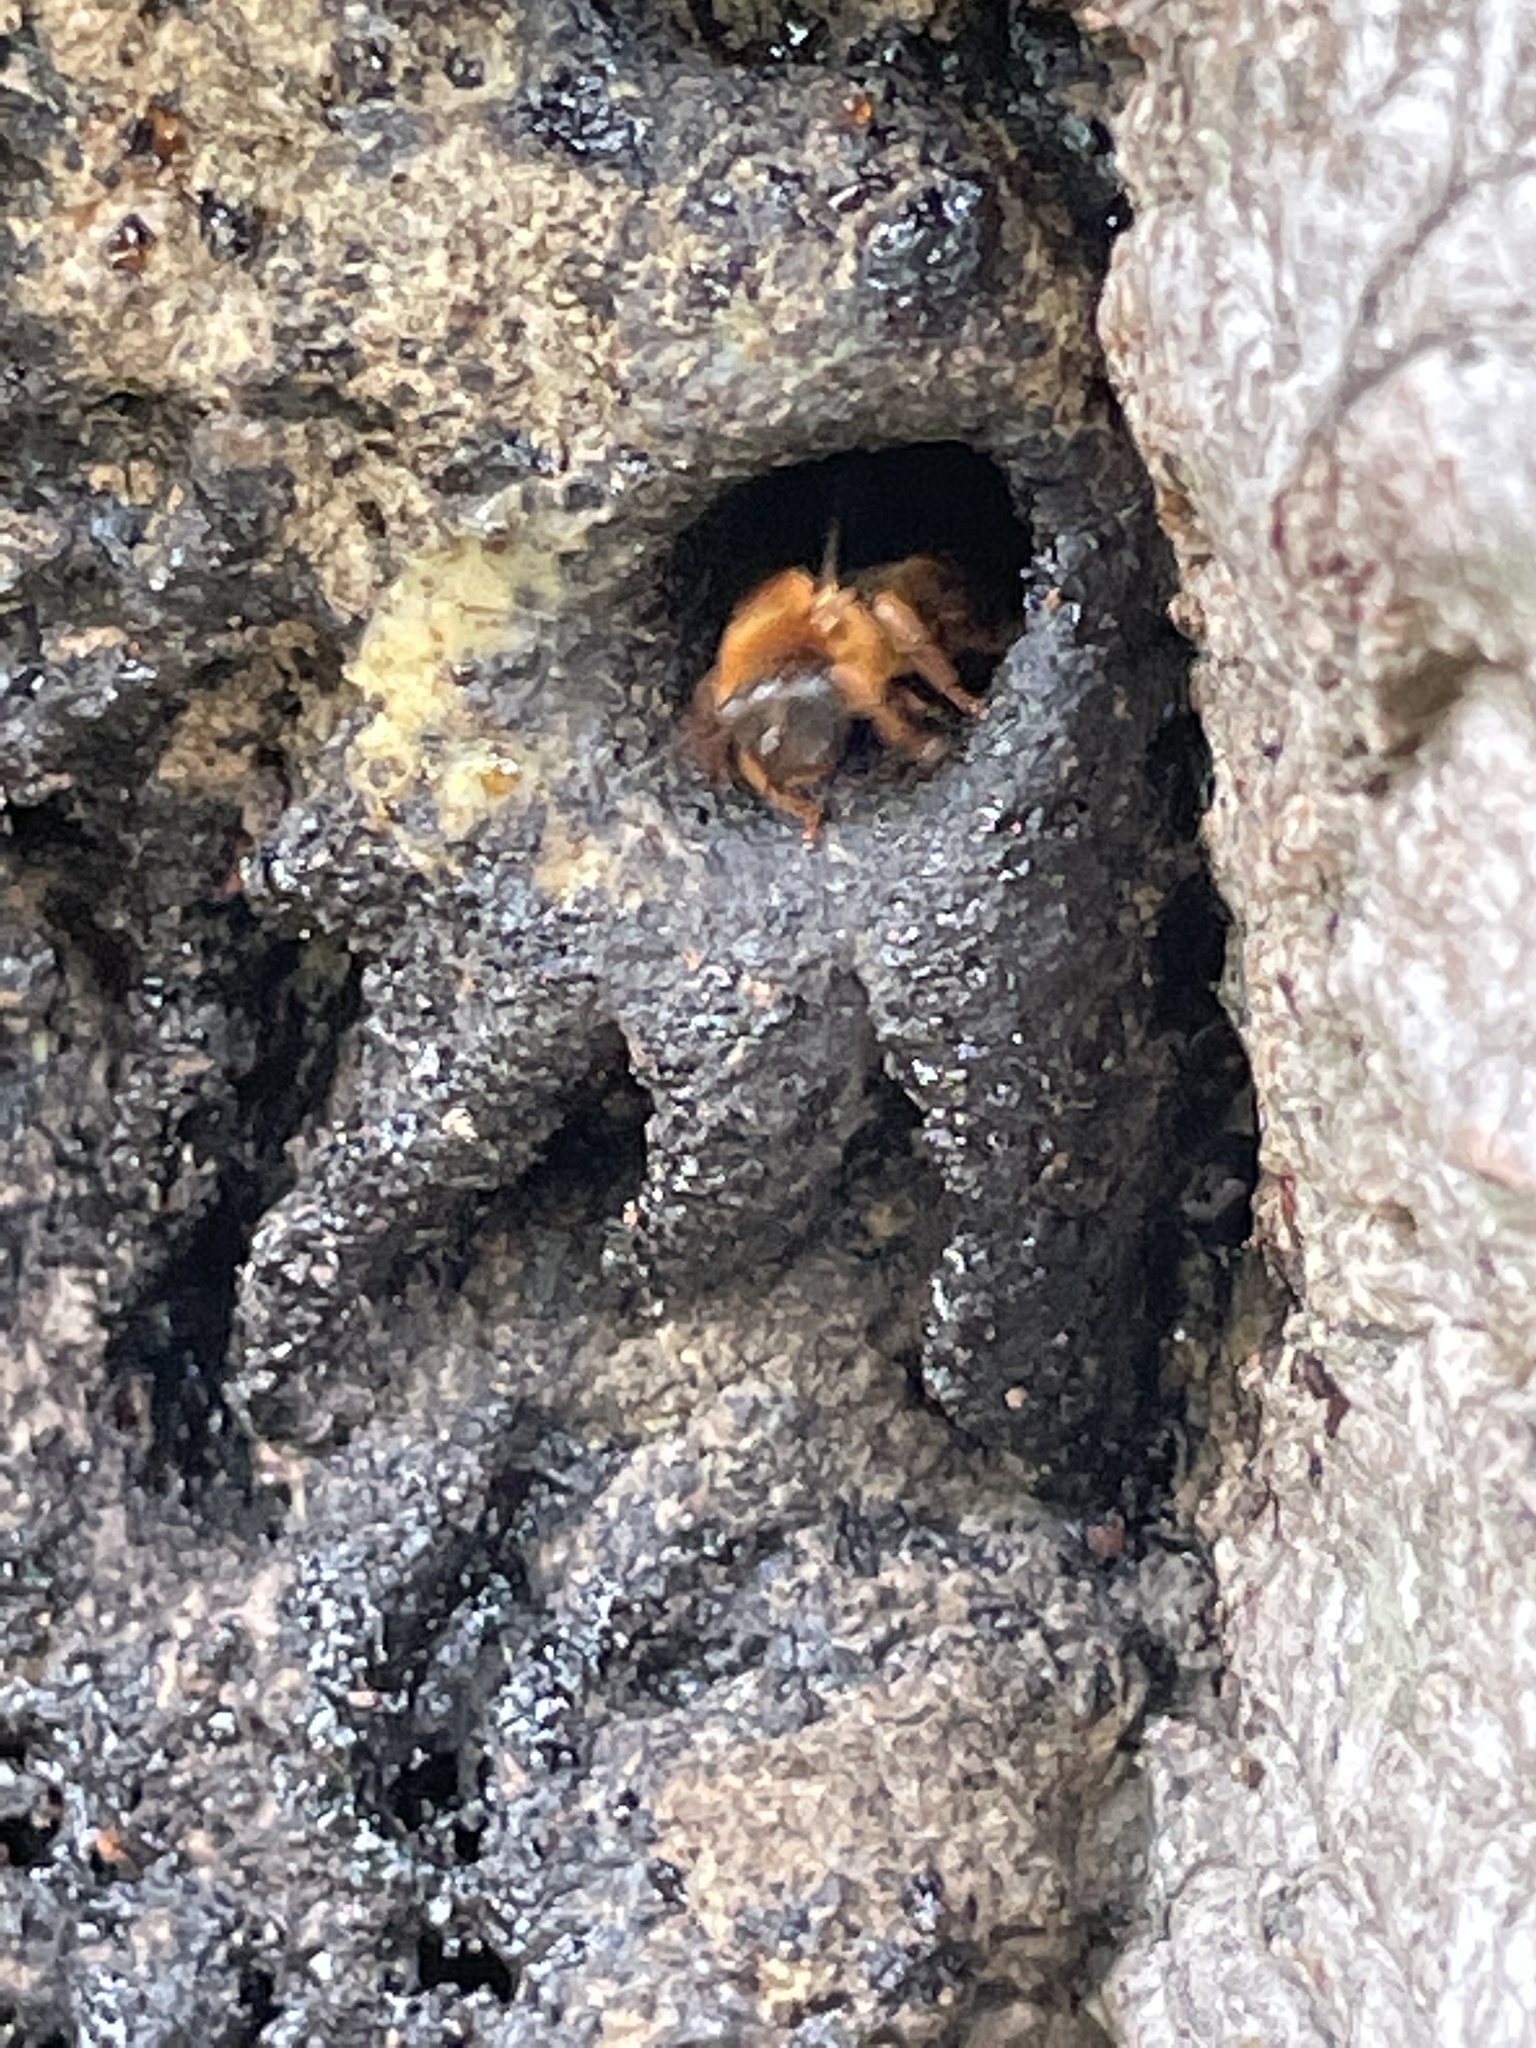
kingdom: Animalia
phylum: Arthropoda
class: Insecta
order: Hymenoptera
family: Apidae
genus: Melipona
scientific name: Melipona variegatipes
